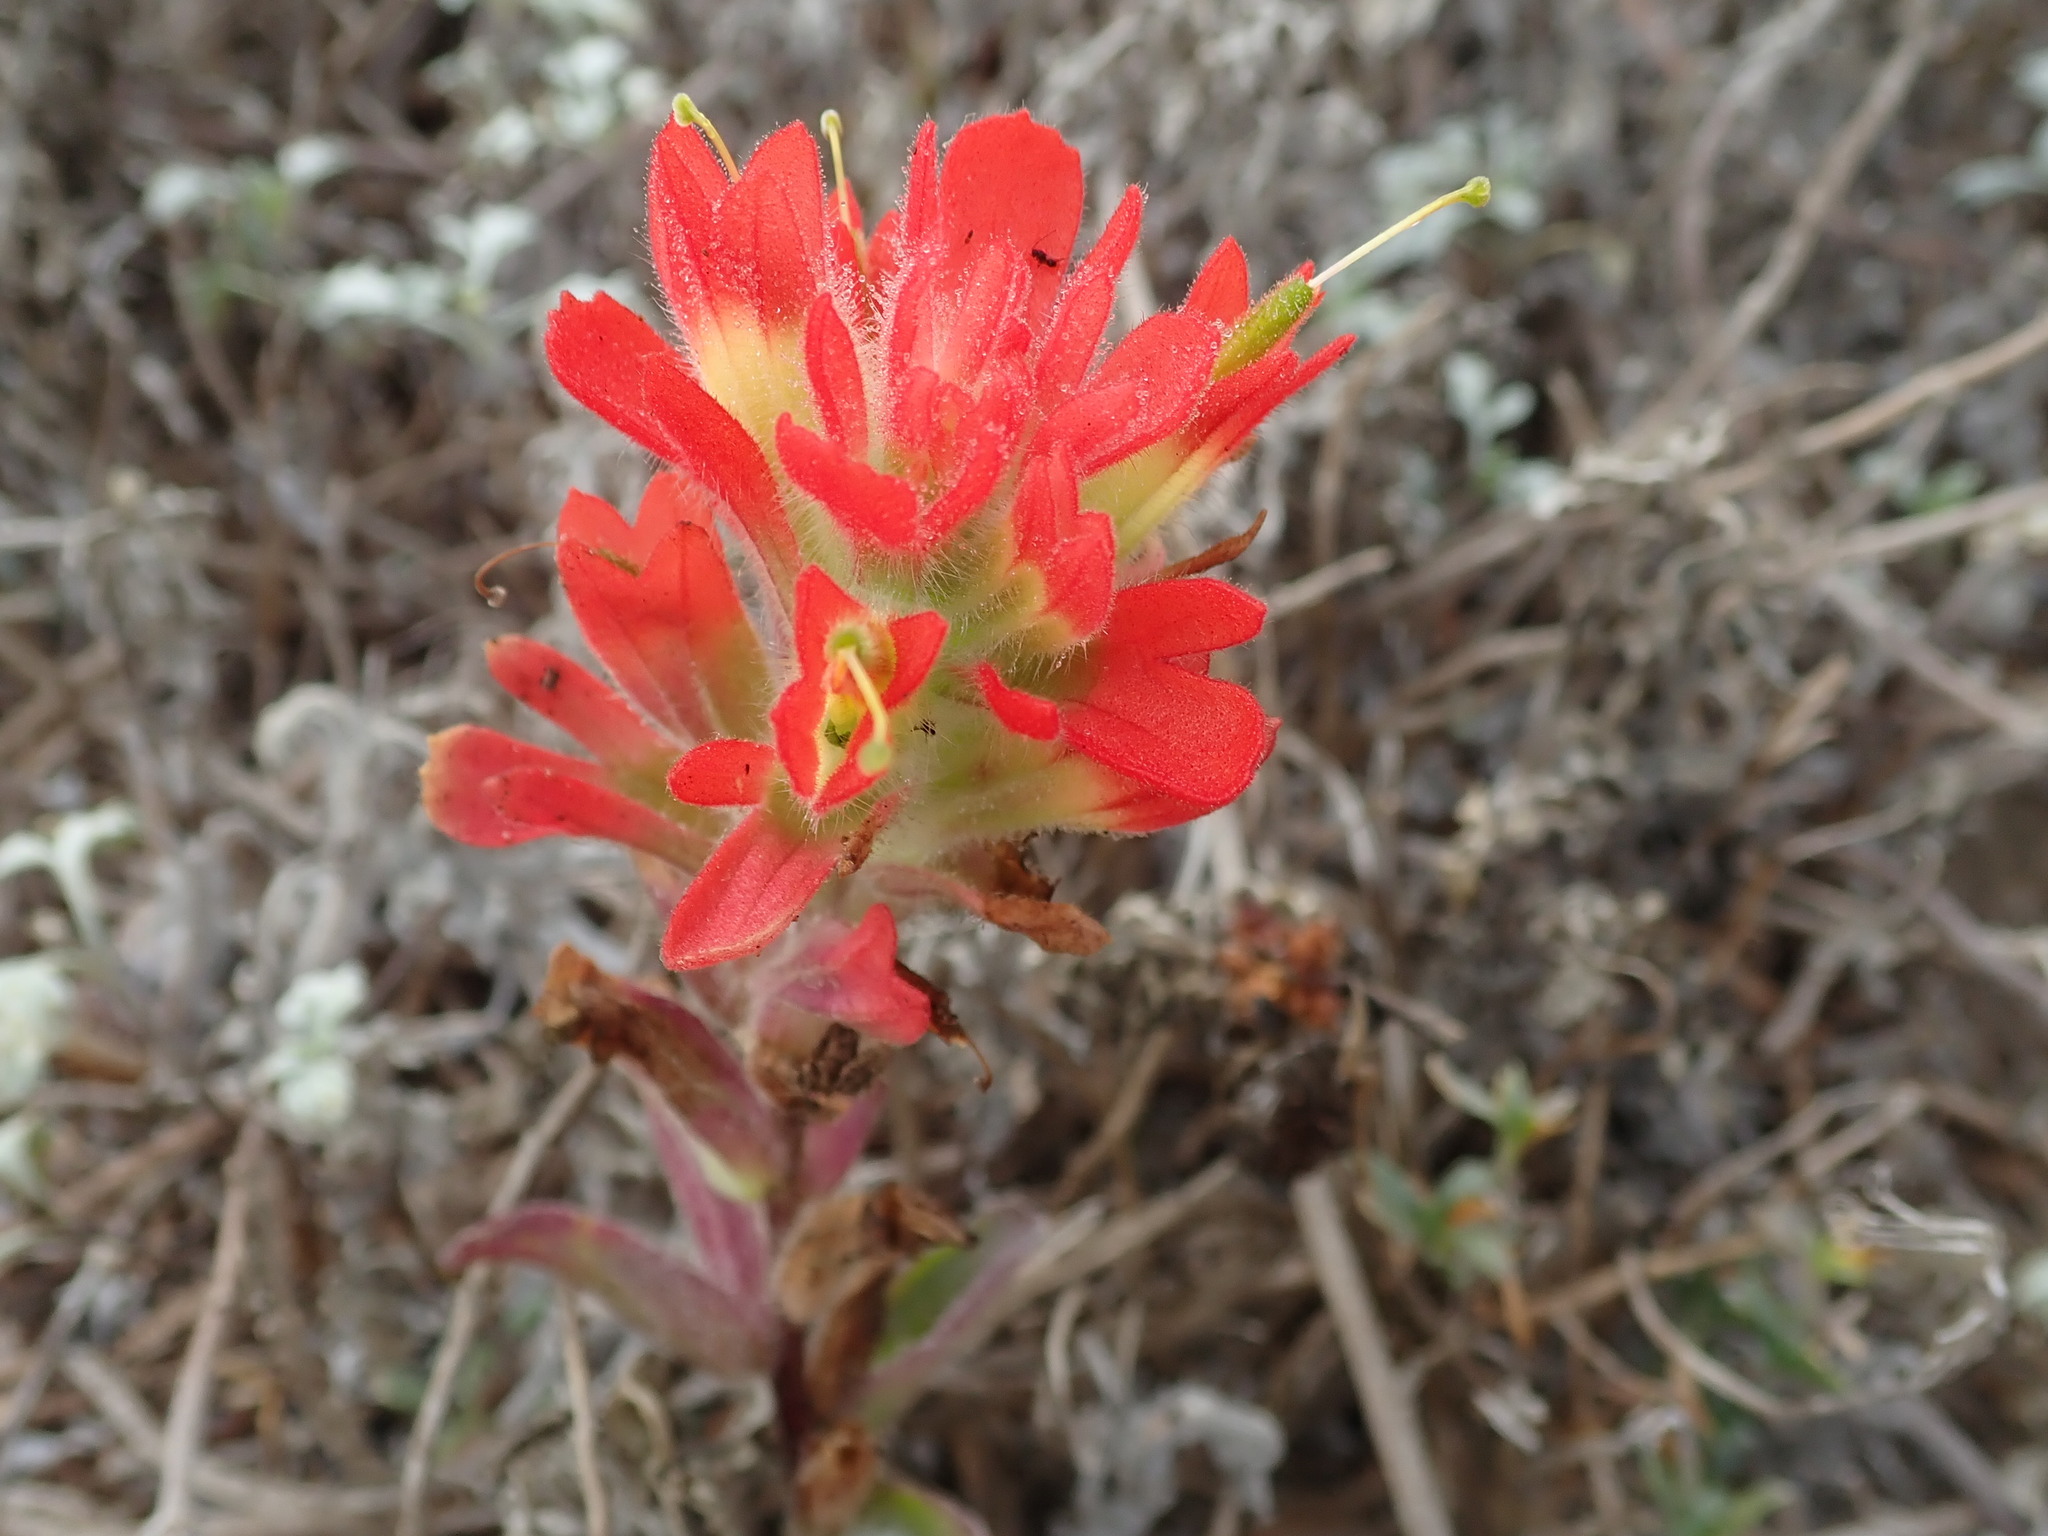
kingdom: Plantae
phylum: Tracheophyta
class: Magnoliopsida
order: Lamiales
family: Orobanchaceae
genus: Castilleja
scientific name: Castilleja affinis
